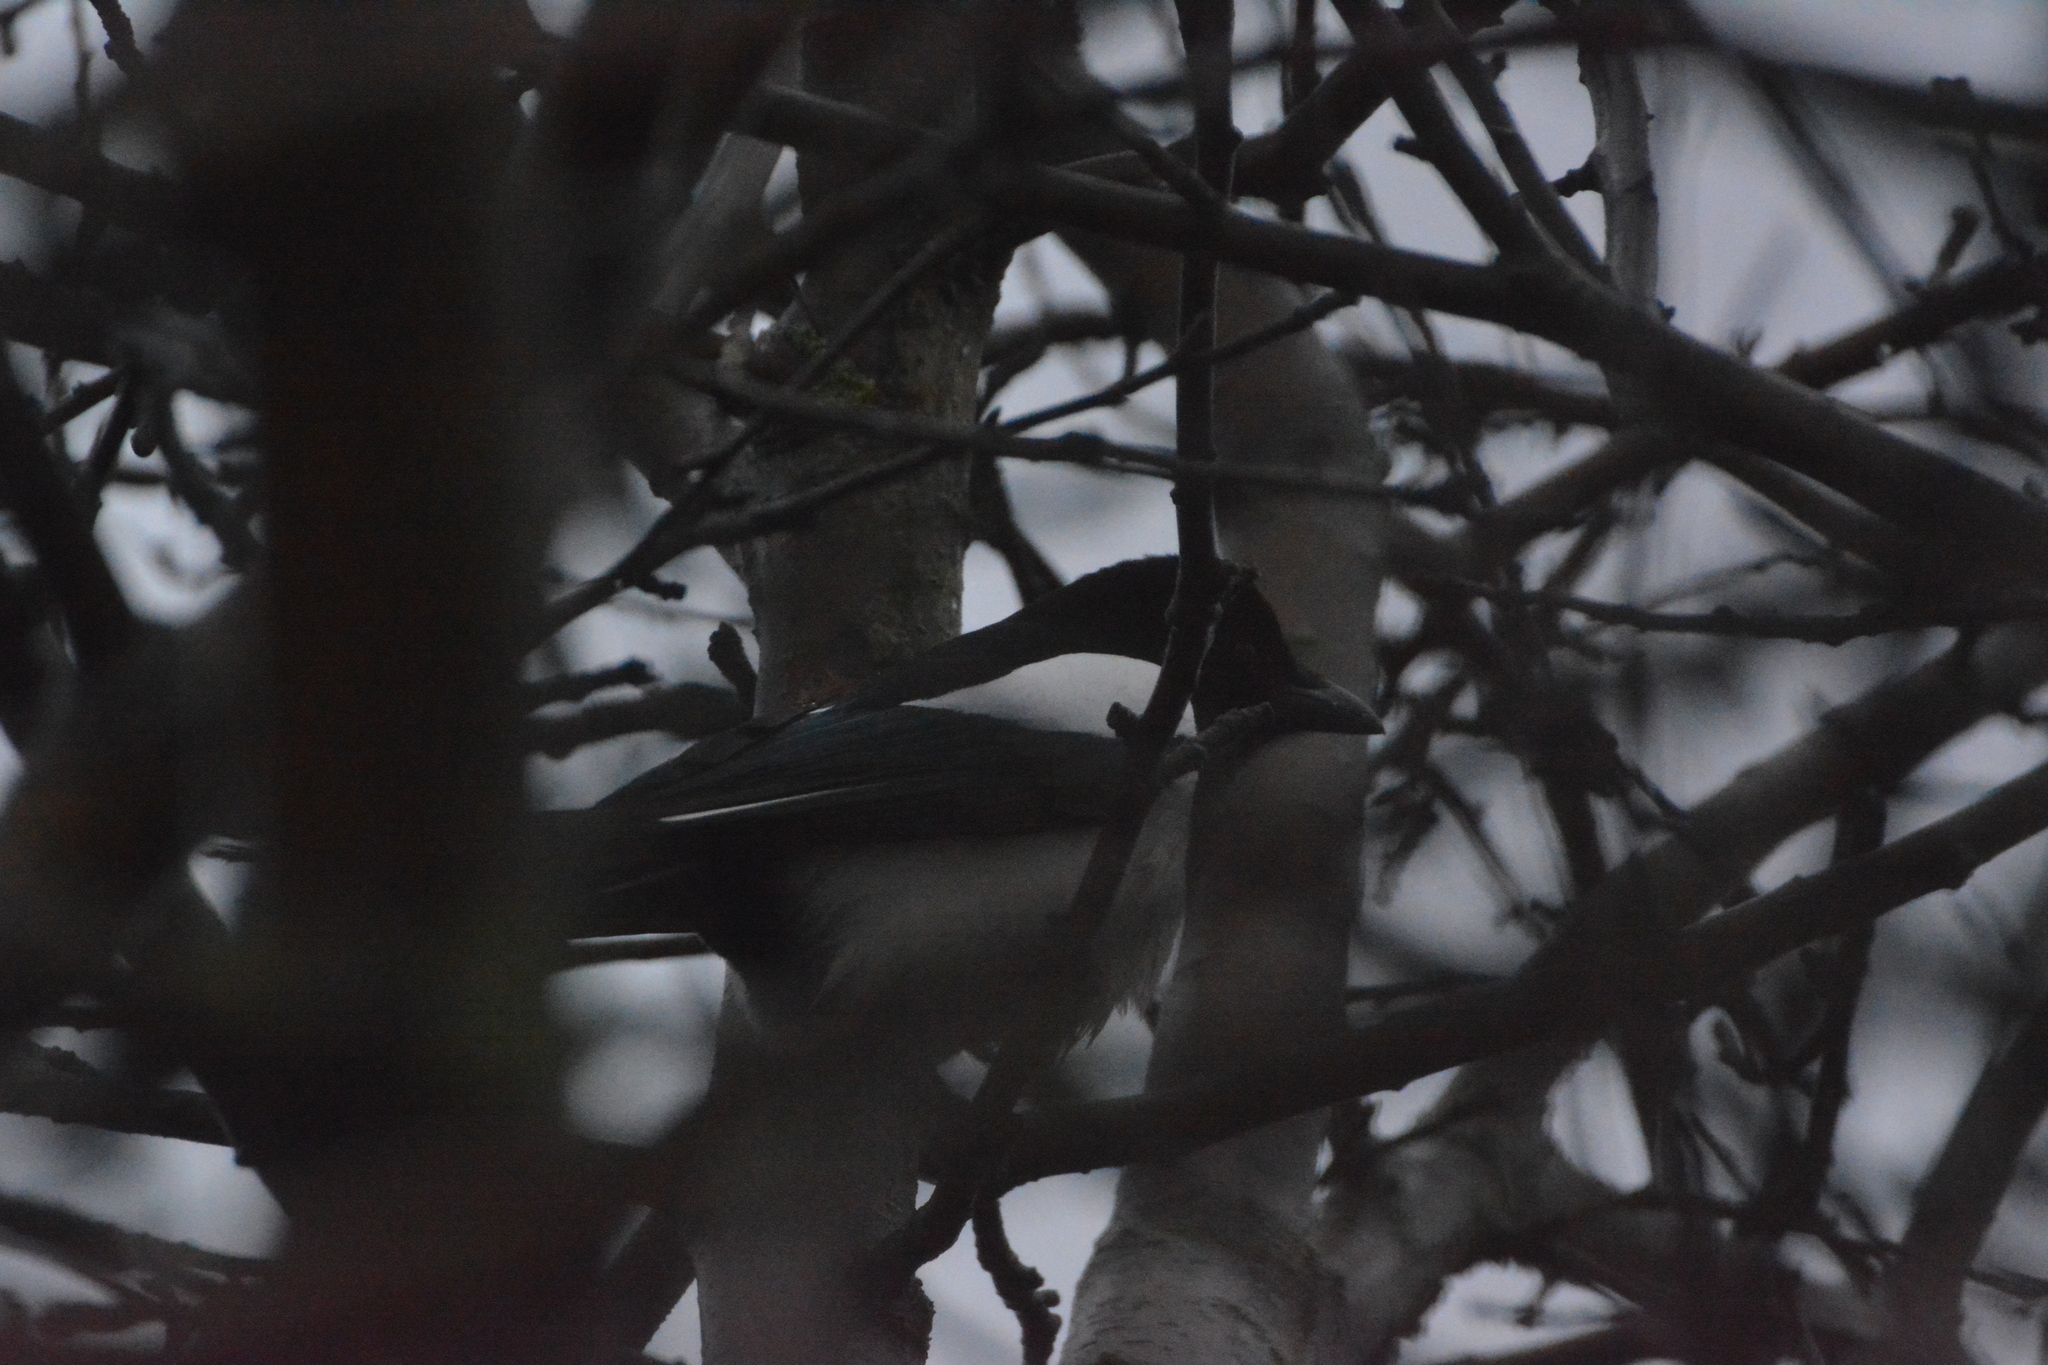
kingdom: Animalia
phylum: Chordata
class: Aves
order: Passeriformes
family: Corvidae
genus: Pica
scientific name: Pica pica
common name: Eurasian magpie
